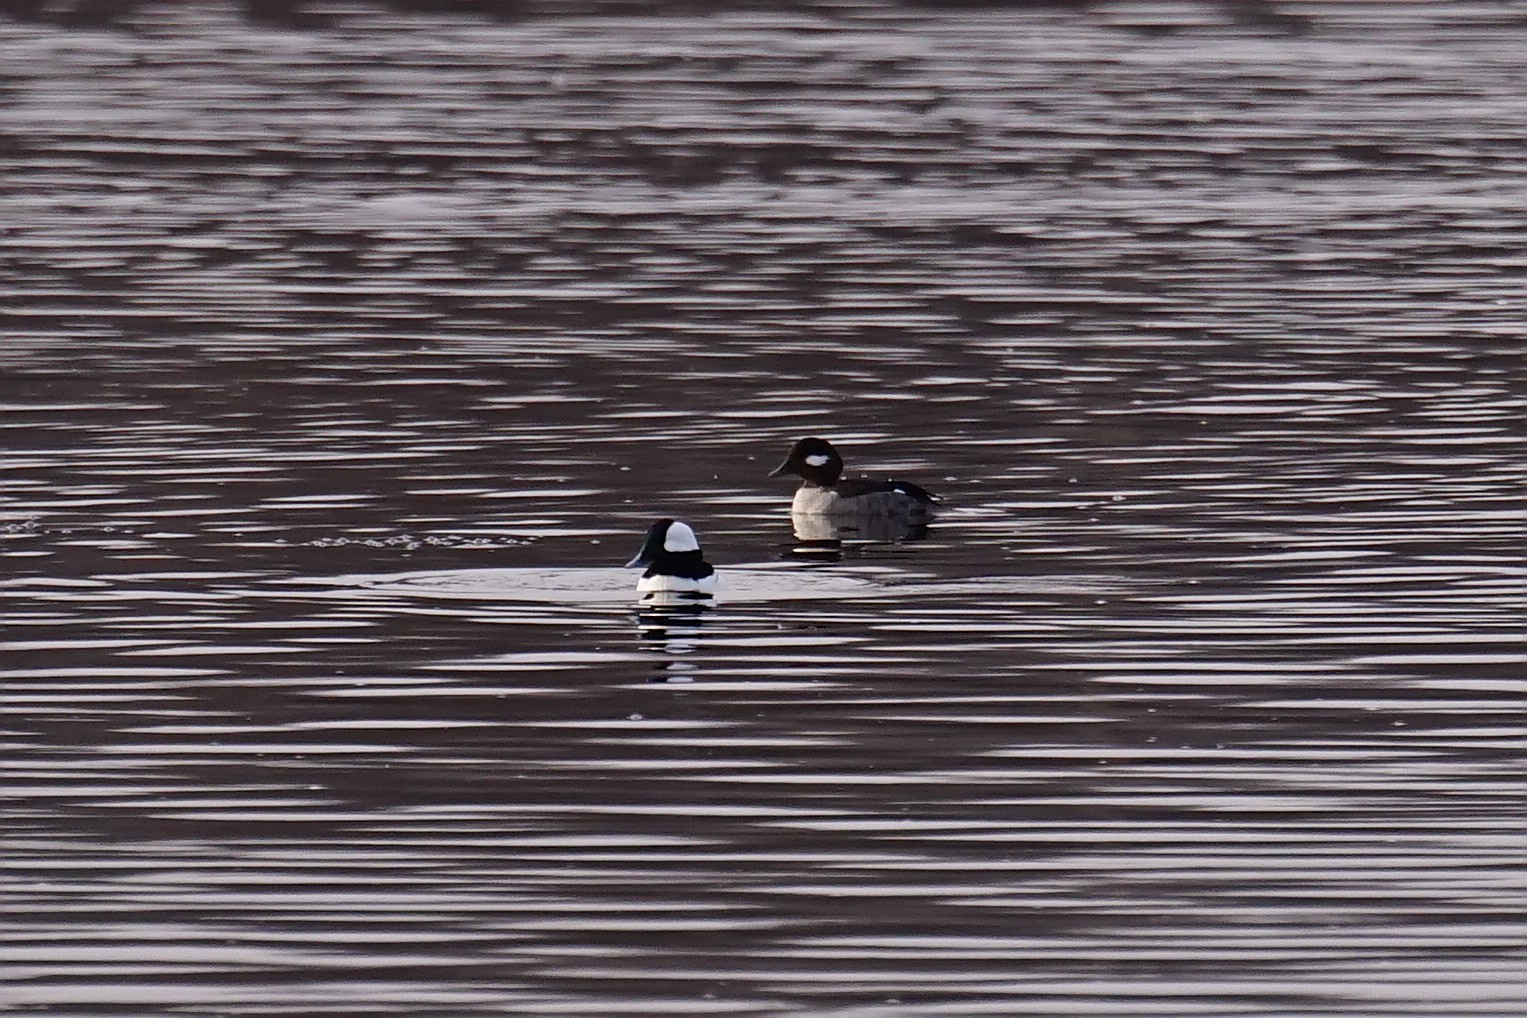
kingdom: Animalia
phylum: Chordata
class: Aves
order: Anseriformes
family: Anatidae
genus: Bucephala
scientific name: Bucephala albeola
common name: Bufflehead
